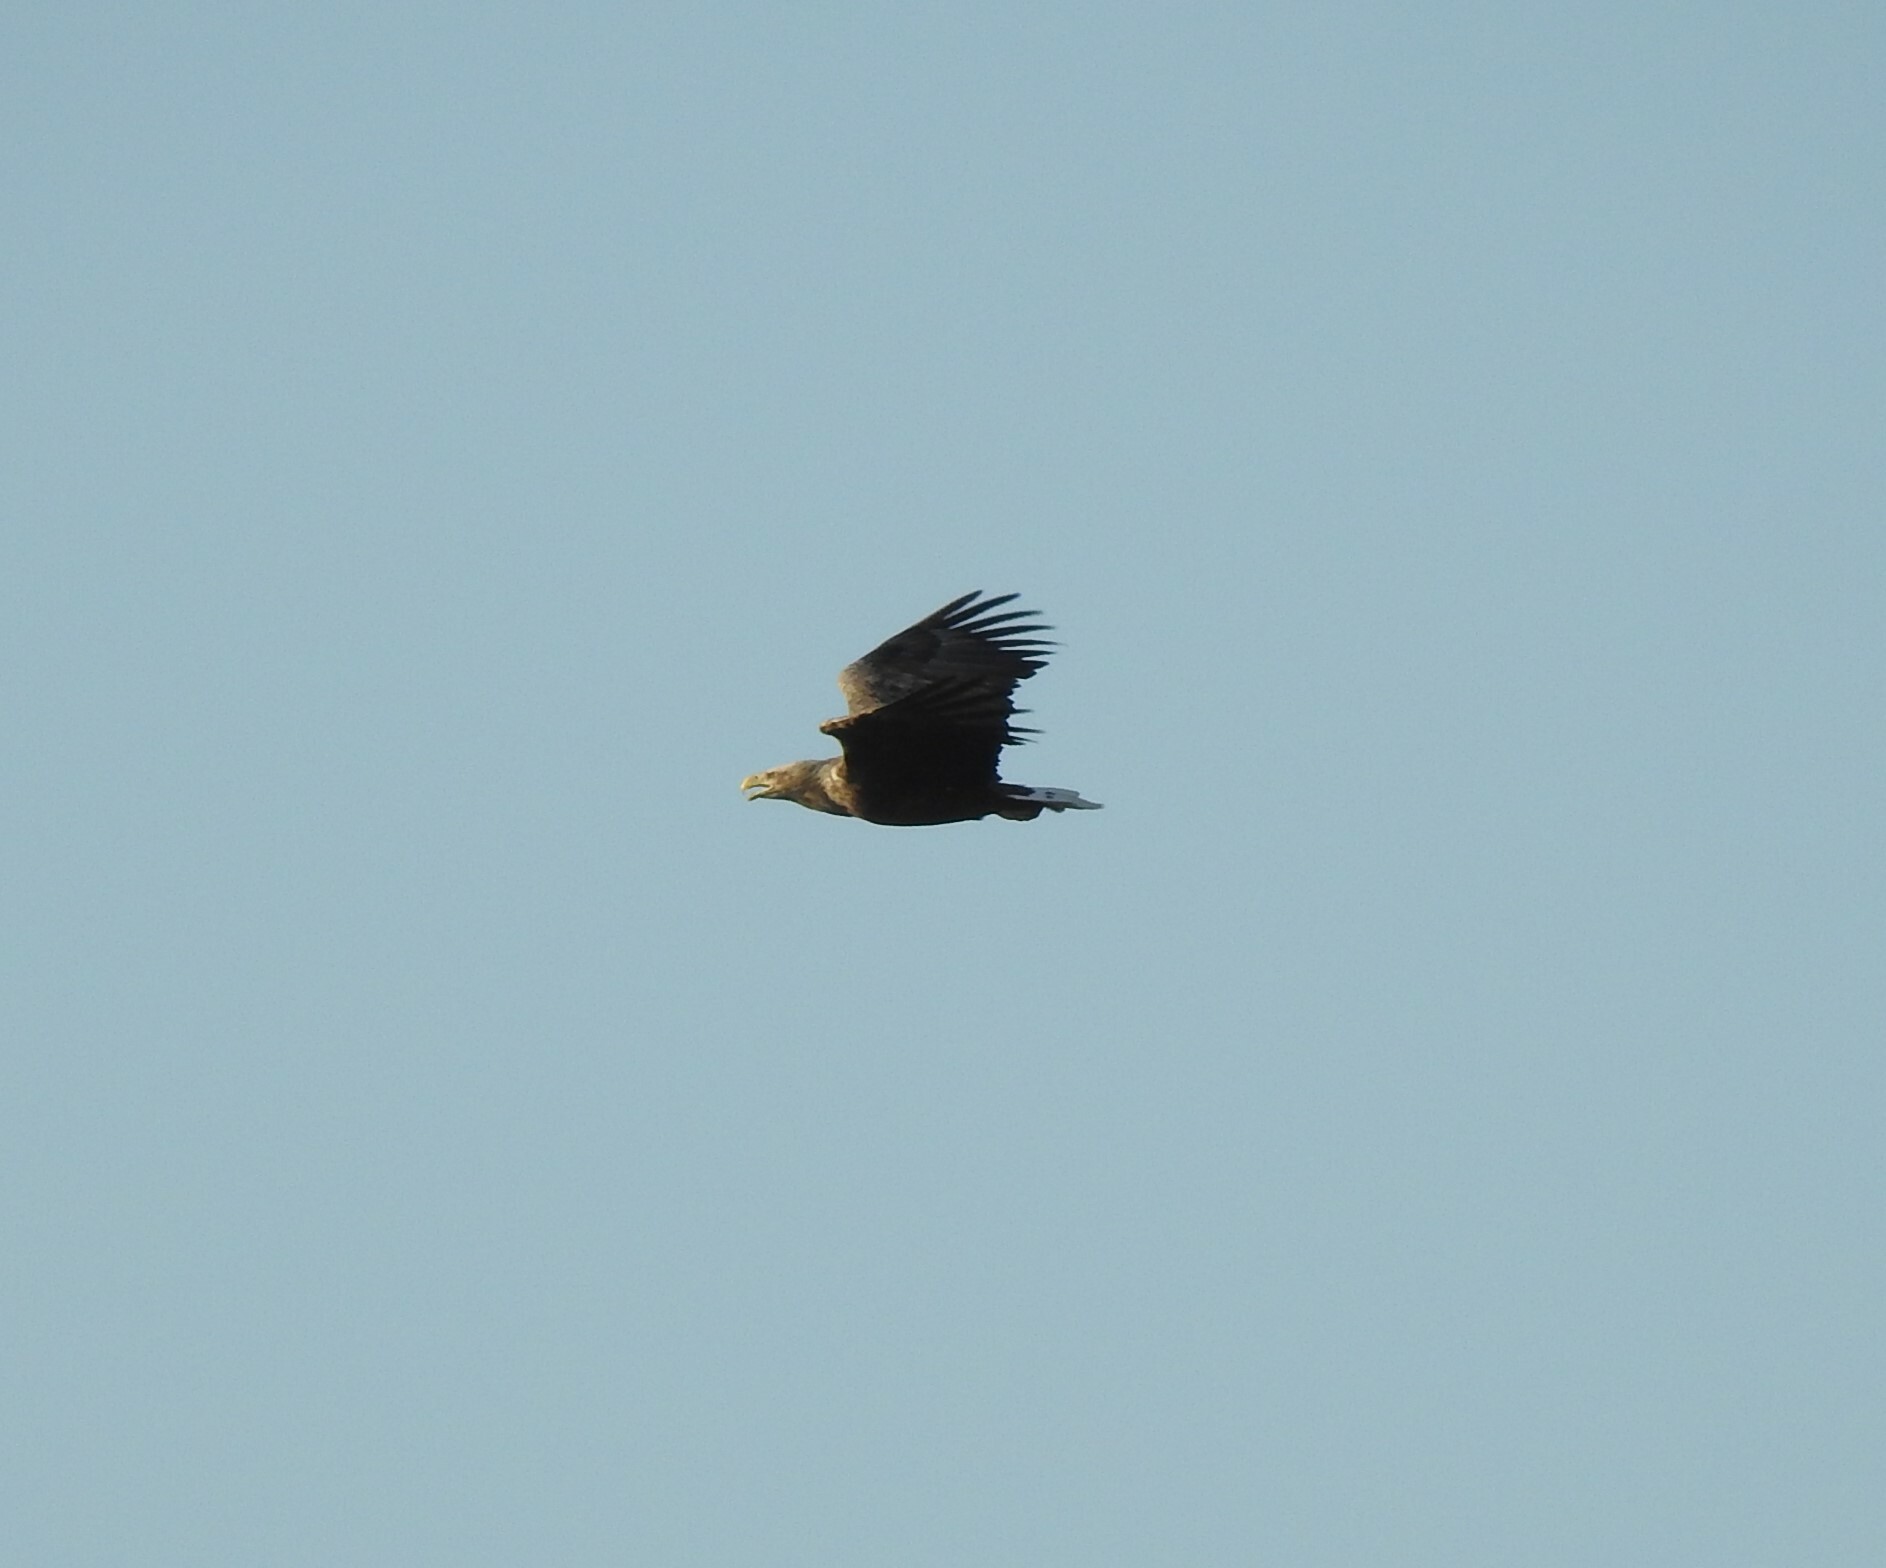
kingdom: Animalia
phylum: Chordata
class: Aves
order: Accipitriformes
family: Accipitridae
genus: Haliaeetus
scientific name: Haliaeetus albicilla
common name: White-tailed eagle
